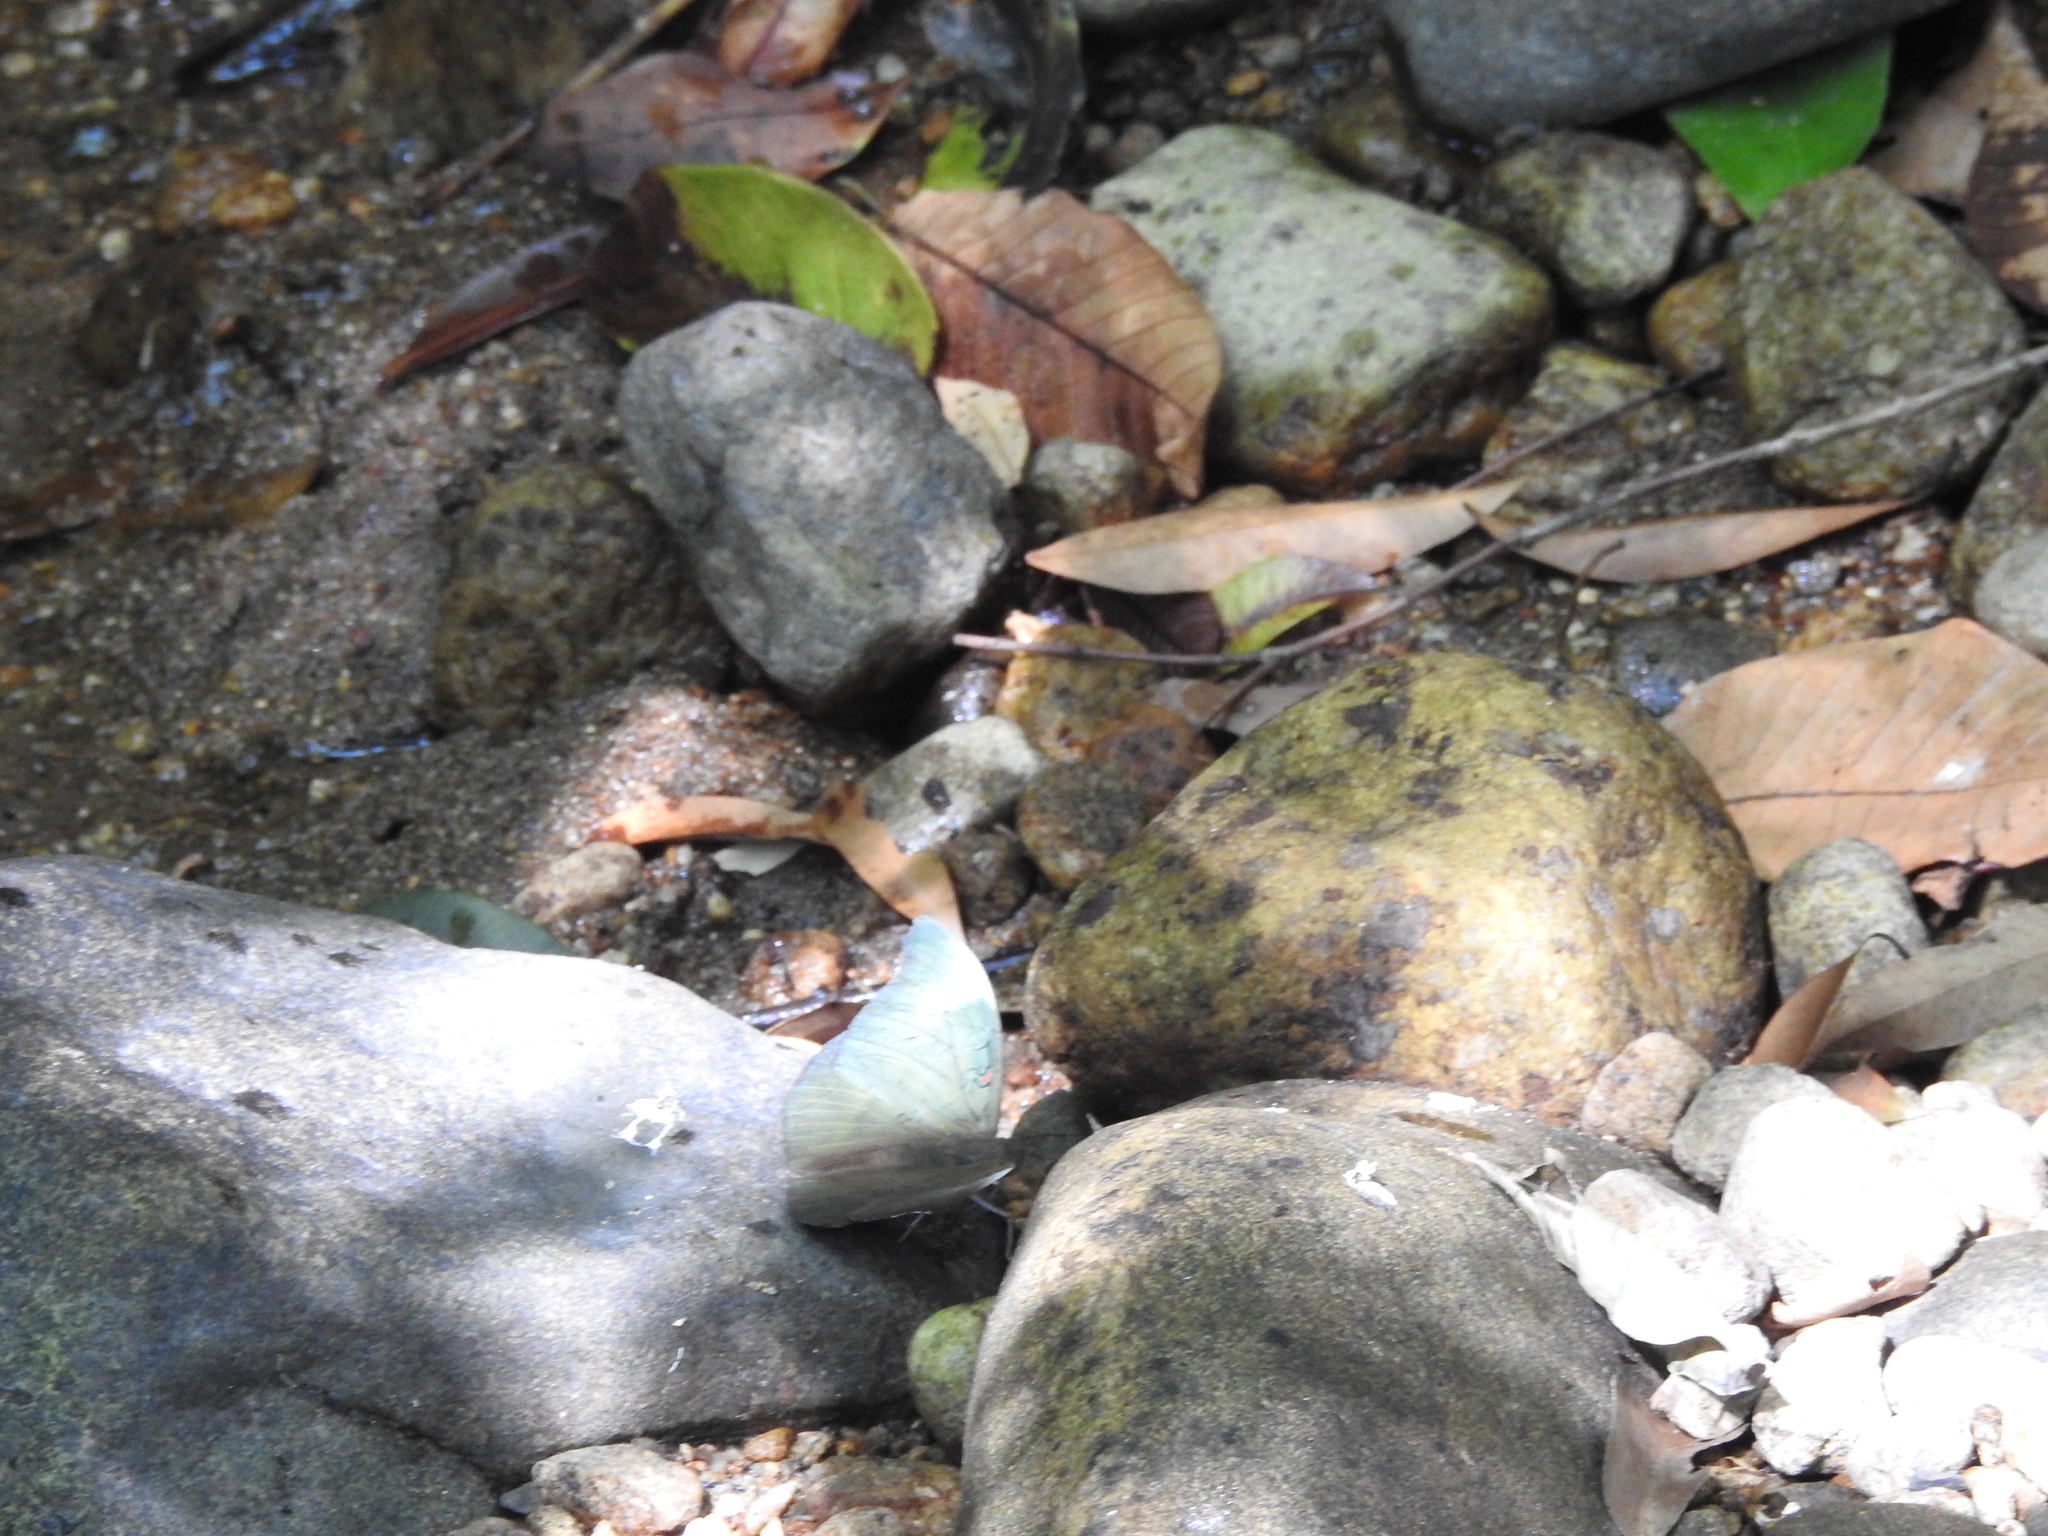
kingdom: Animalia
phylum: Arthropoda
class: Insecta
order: Lepidoptera
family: Nymphalidae
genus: Euthalia
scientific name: Euthalia Dophla evelina
